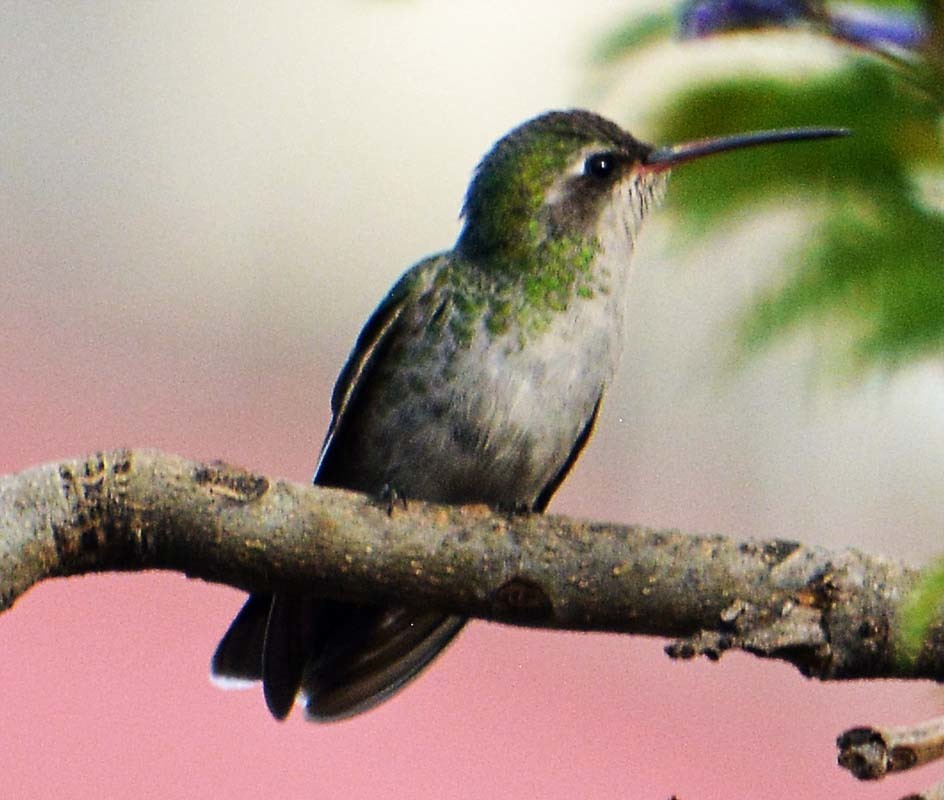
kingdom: Animalia
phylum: Chordata
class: Aves
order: Apodiformes
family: Trochilidae
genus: Cynanthus
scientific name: Cynanthus latirostris
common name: Broad-billed hummingbird
